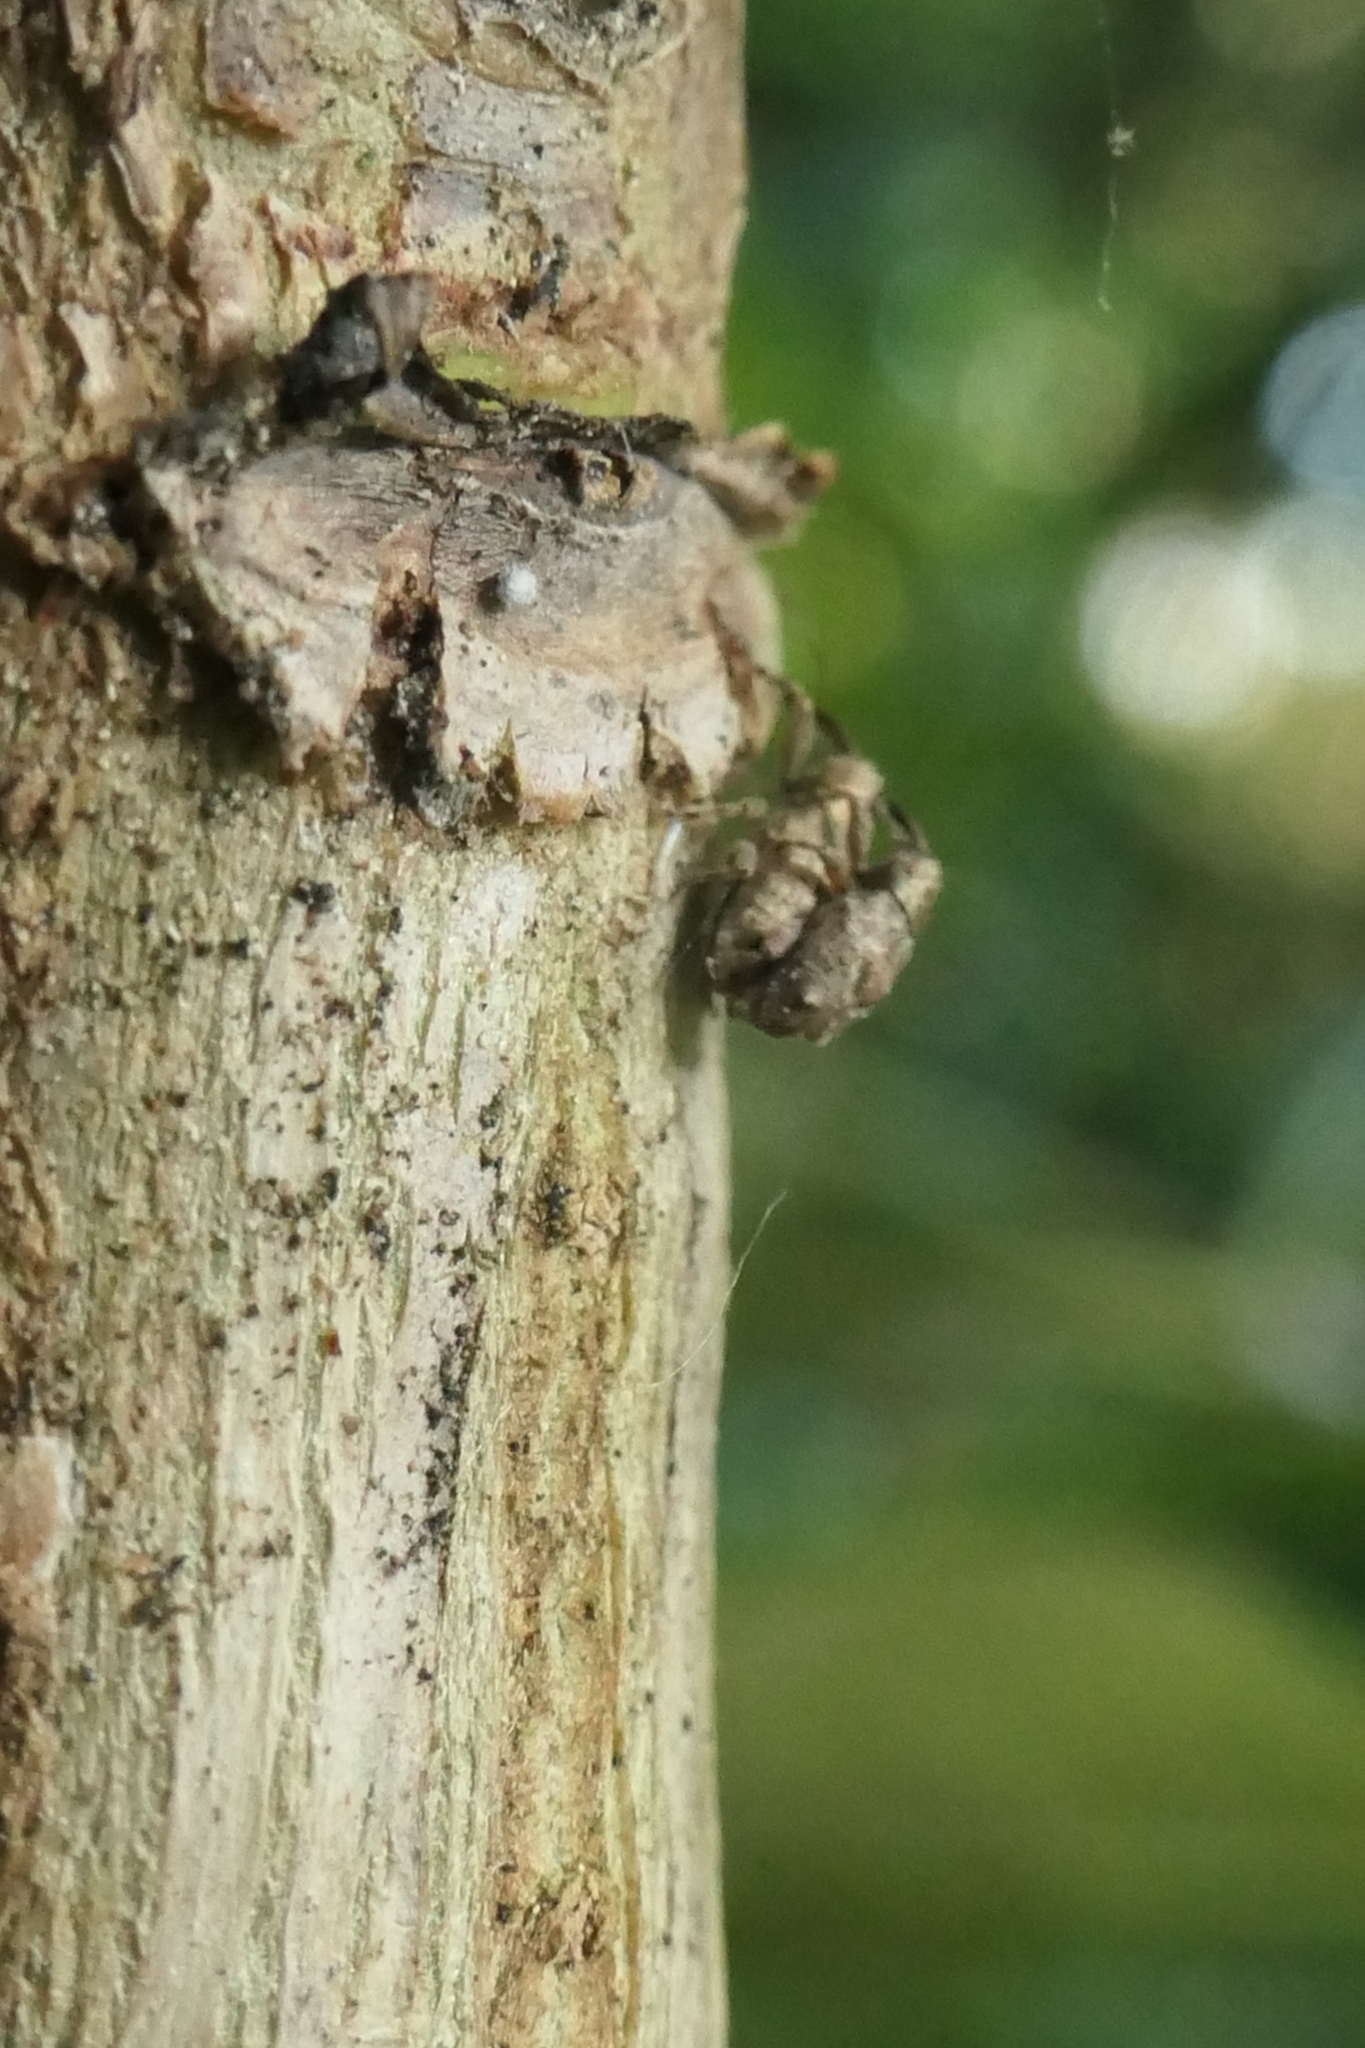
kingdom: Animalia
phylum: Arthropoda
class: Insecta
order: Coleoptera
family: Curculionidae
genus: Praolepra
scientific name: Praolepra infusca
